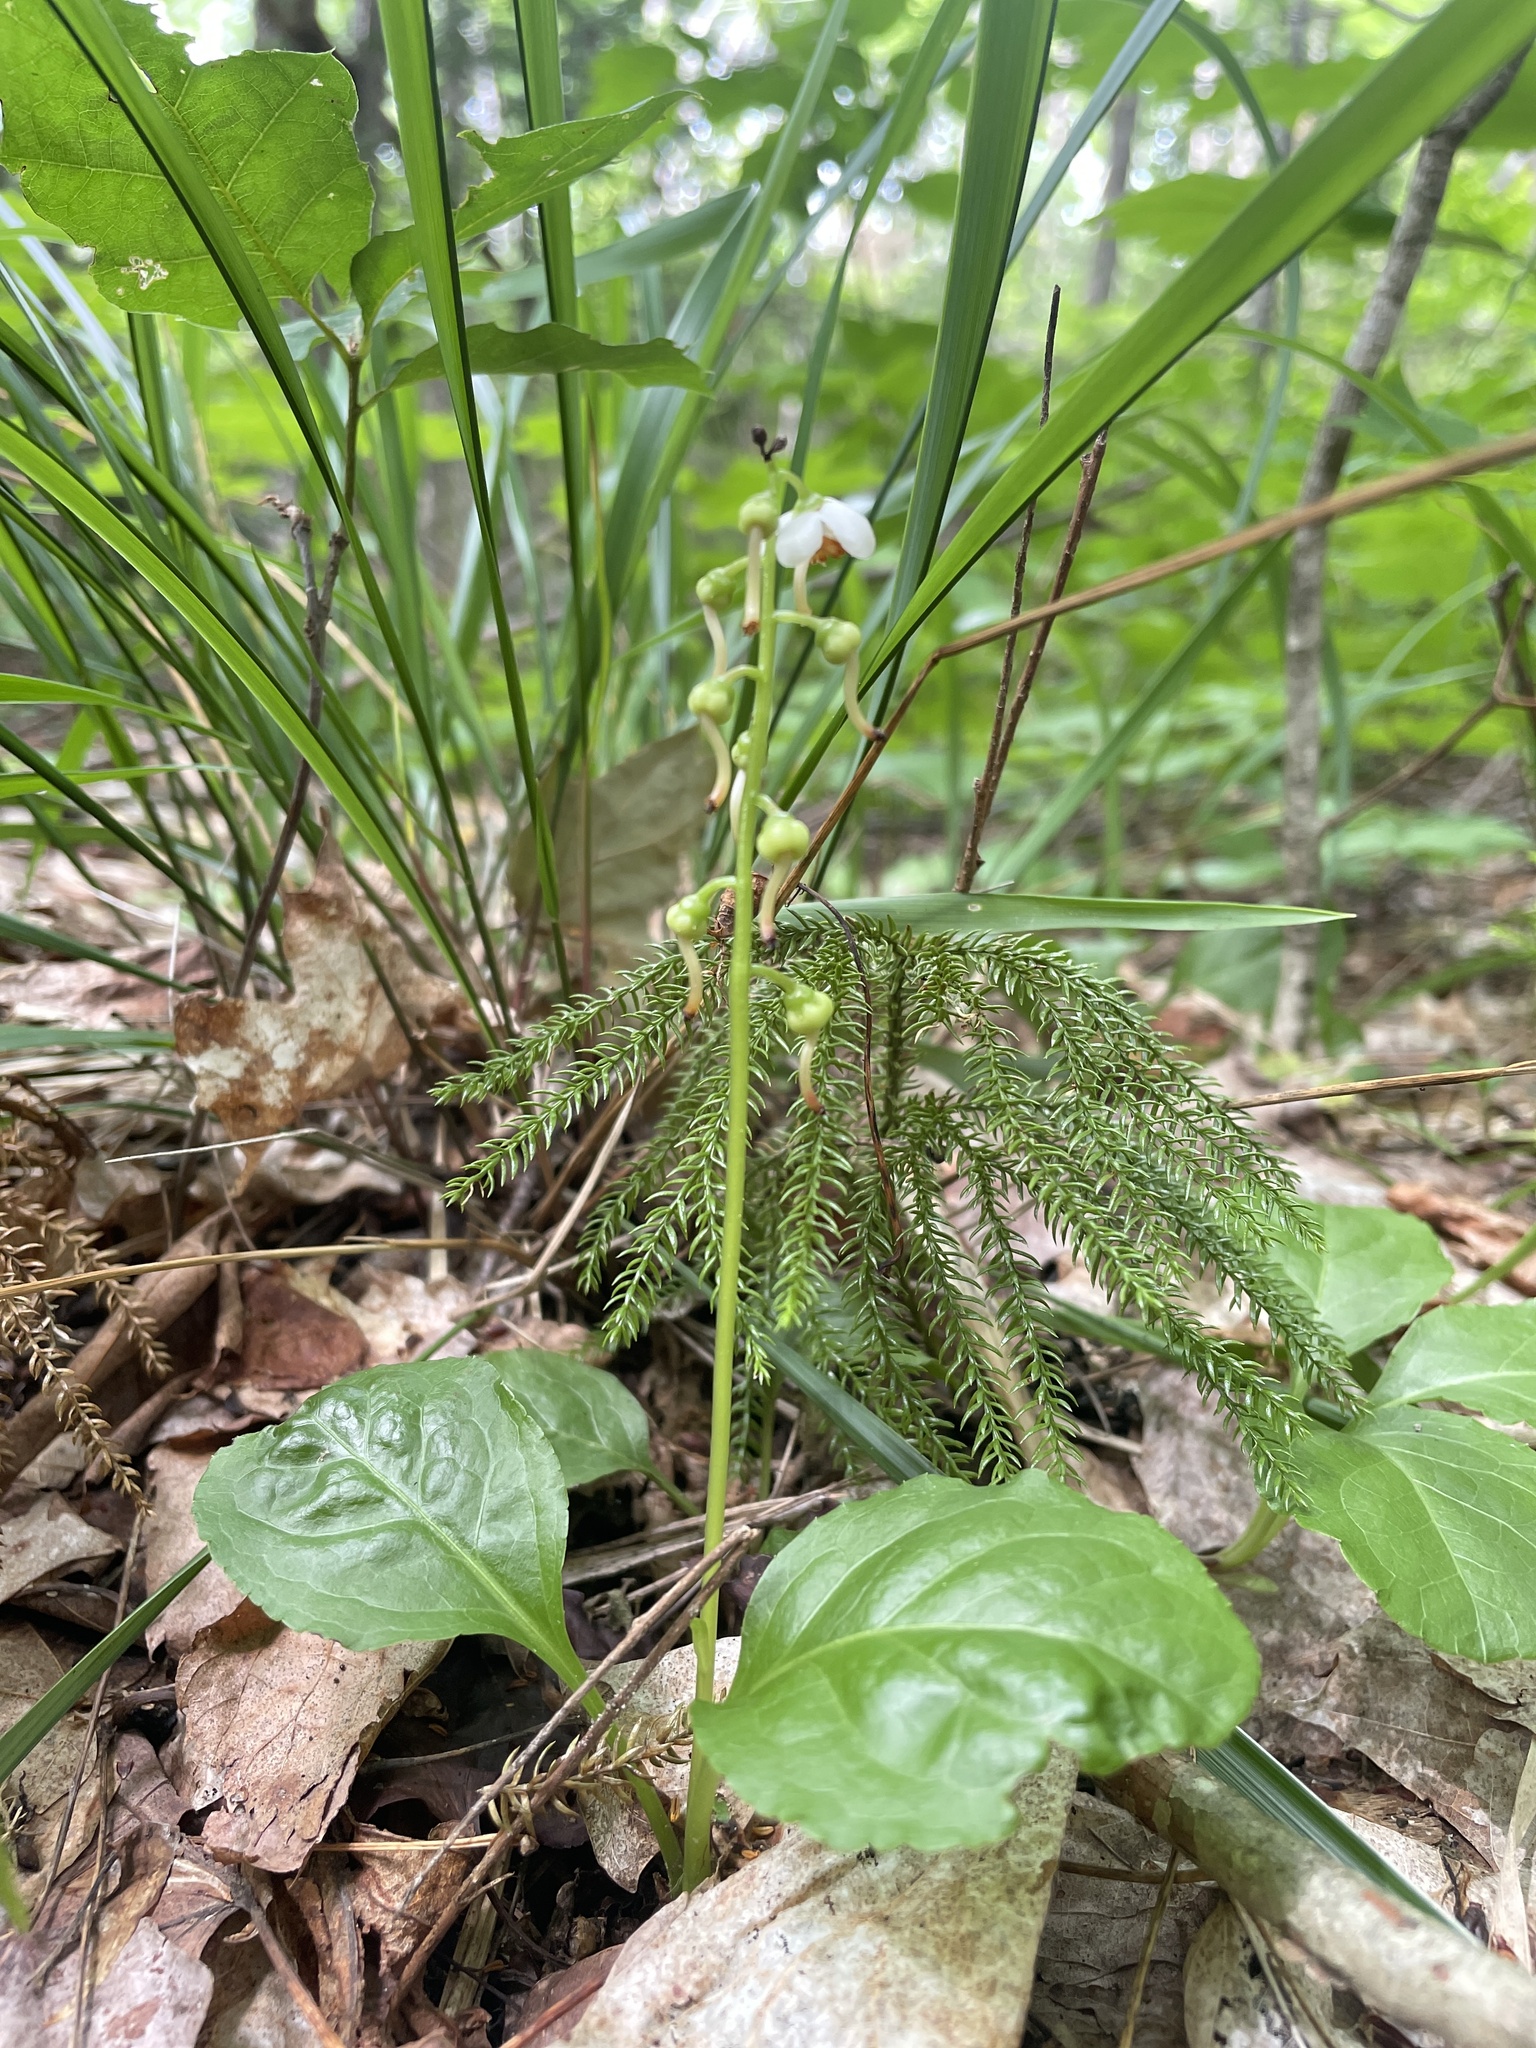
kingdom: Plantae
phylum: Tracheophyta
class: Magnoliopsida
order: Ericales
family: Ericaceae
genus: Pyrola
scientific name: Pyrola elliptica
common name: Shinleaf
